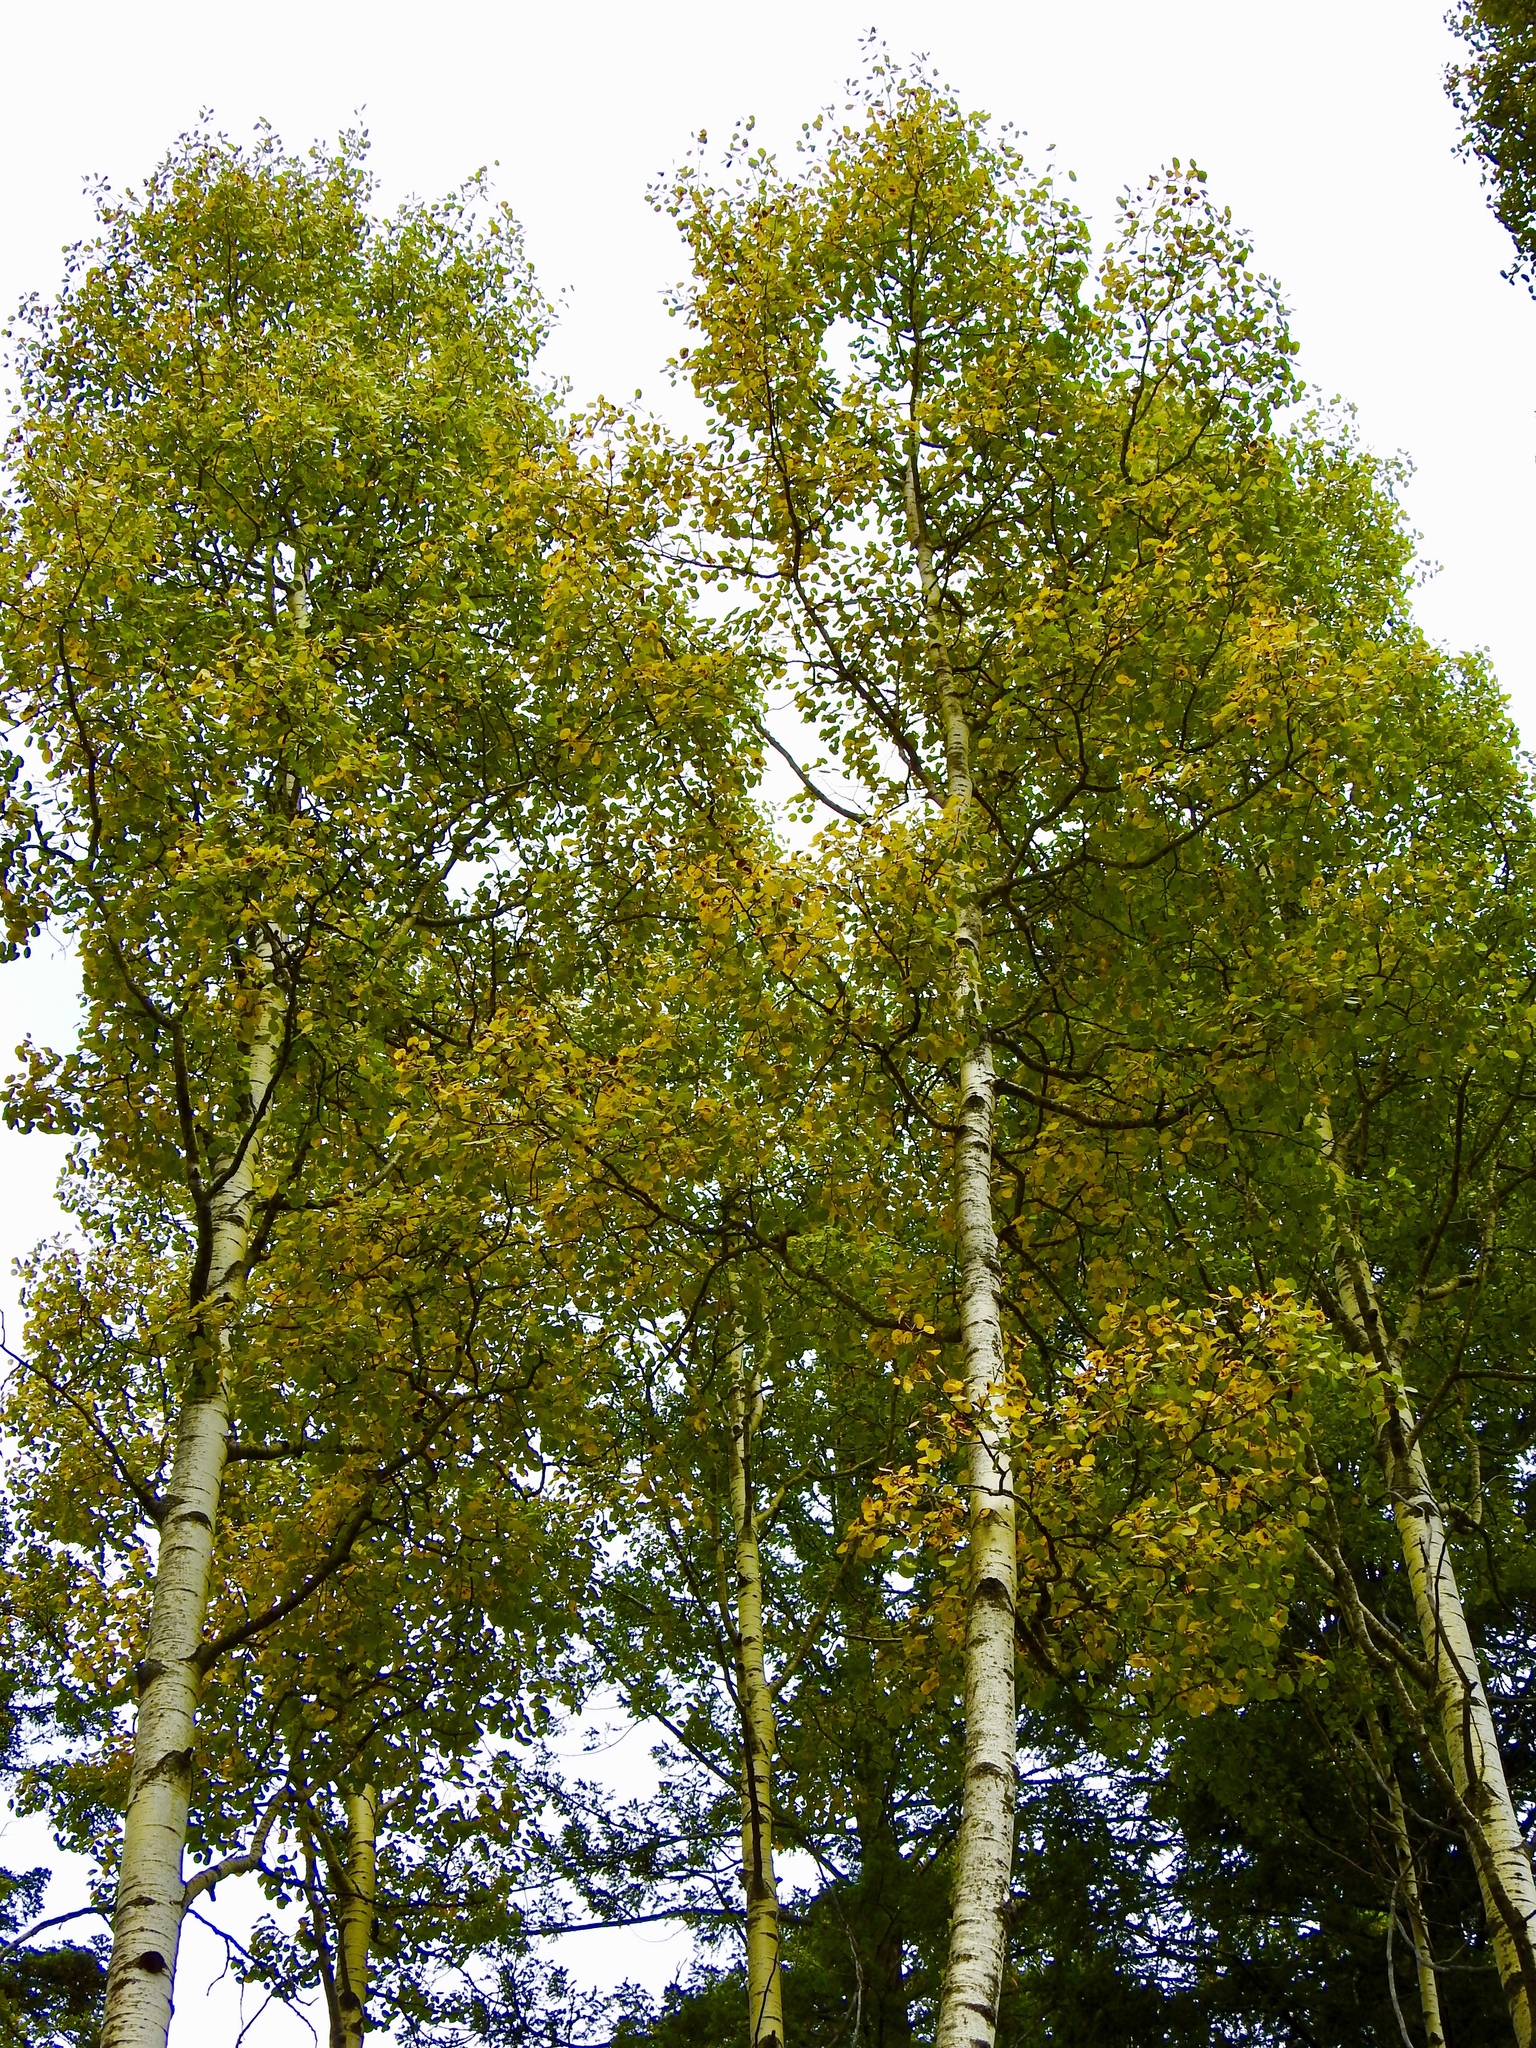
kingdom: Plantae
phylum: Tracheophyta
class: Magnoliopsida
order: Malpighiales
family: Salicaceae
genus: Populus
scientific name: Populus tremuloides
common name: Quaking aspen
